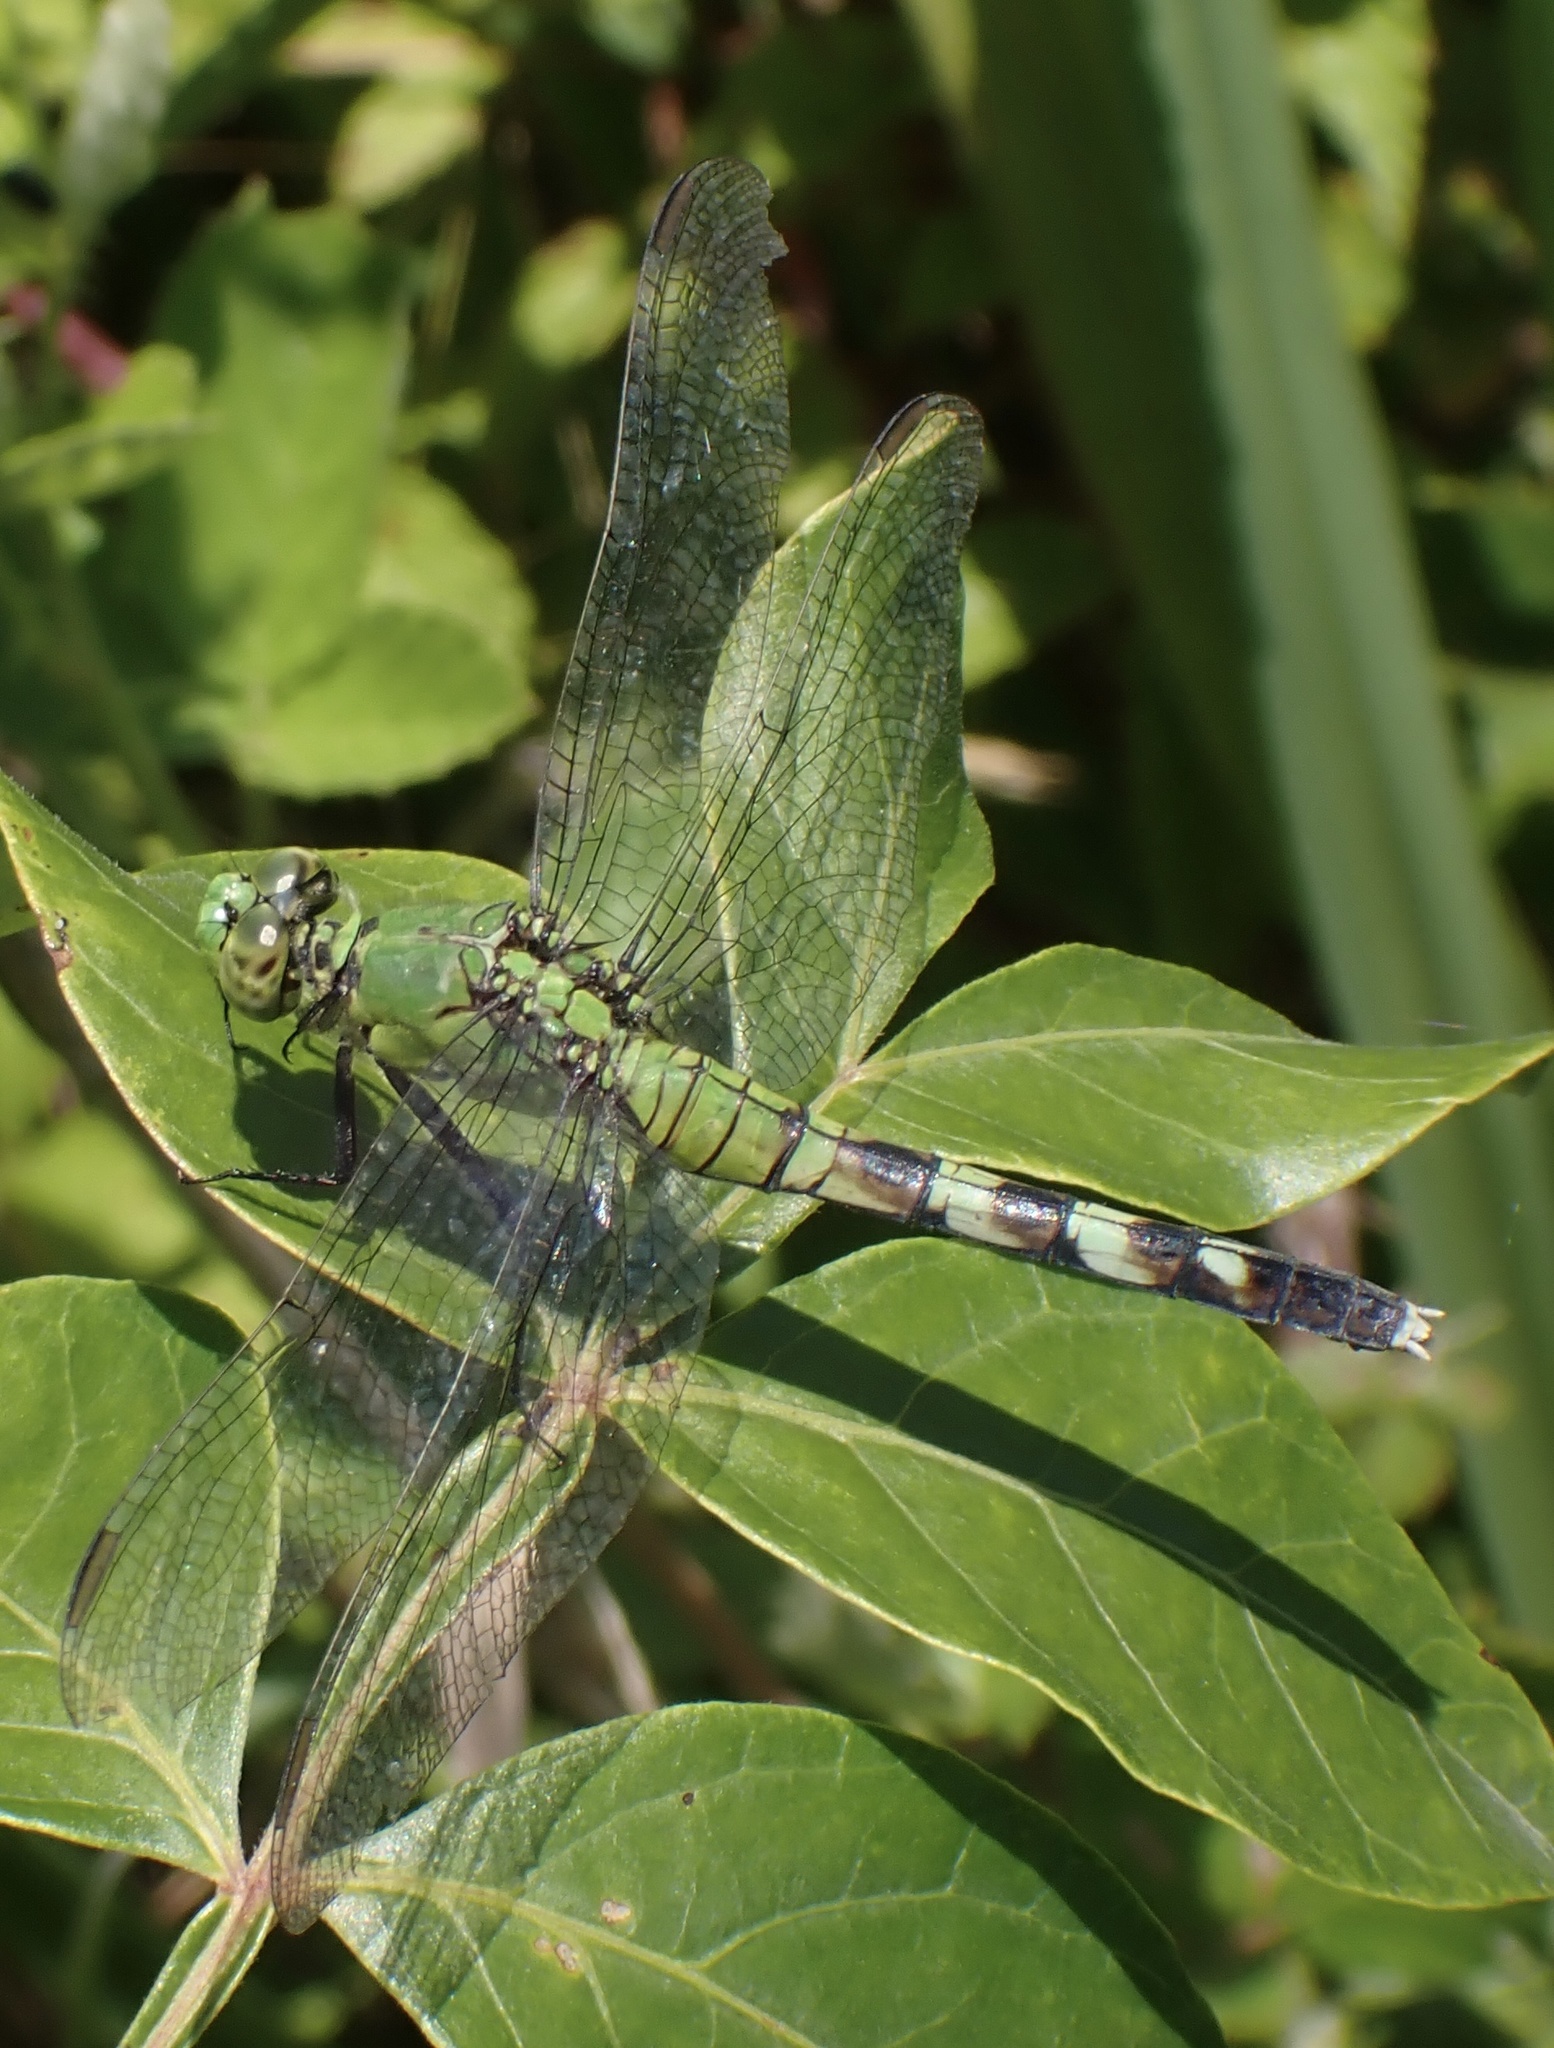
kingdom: Animalia
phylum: Arthropoda
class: Insecta
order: Odonata
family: Libellulidae
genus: Erythemis
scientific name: Erythemis simplicicollis
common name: Eastern pondhawk
